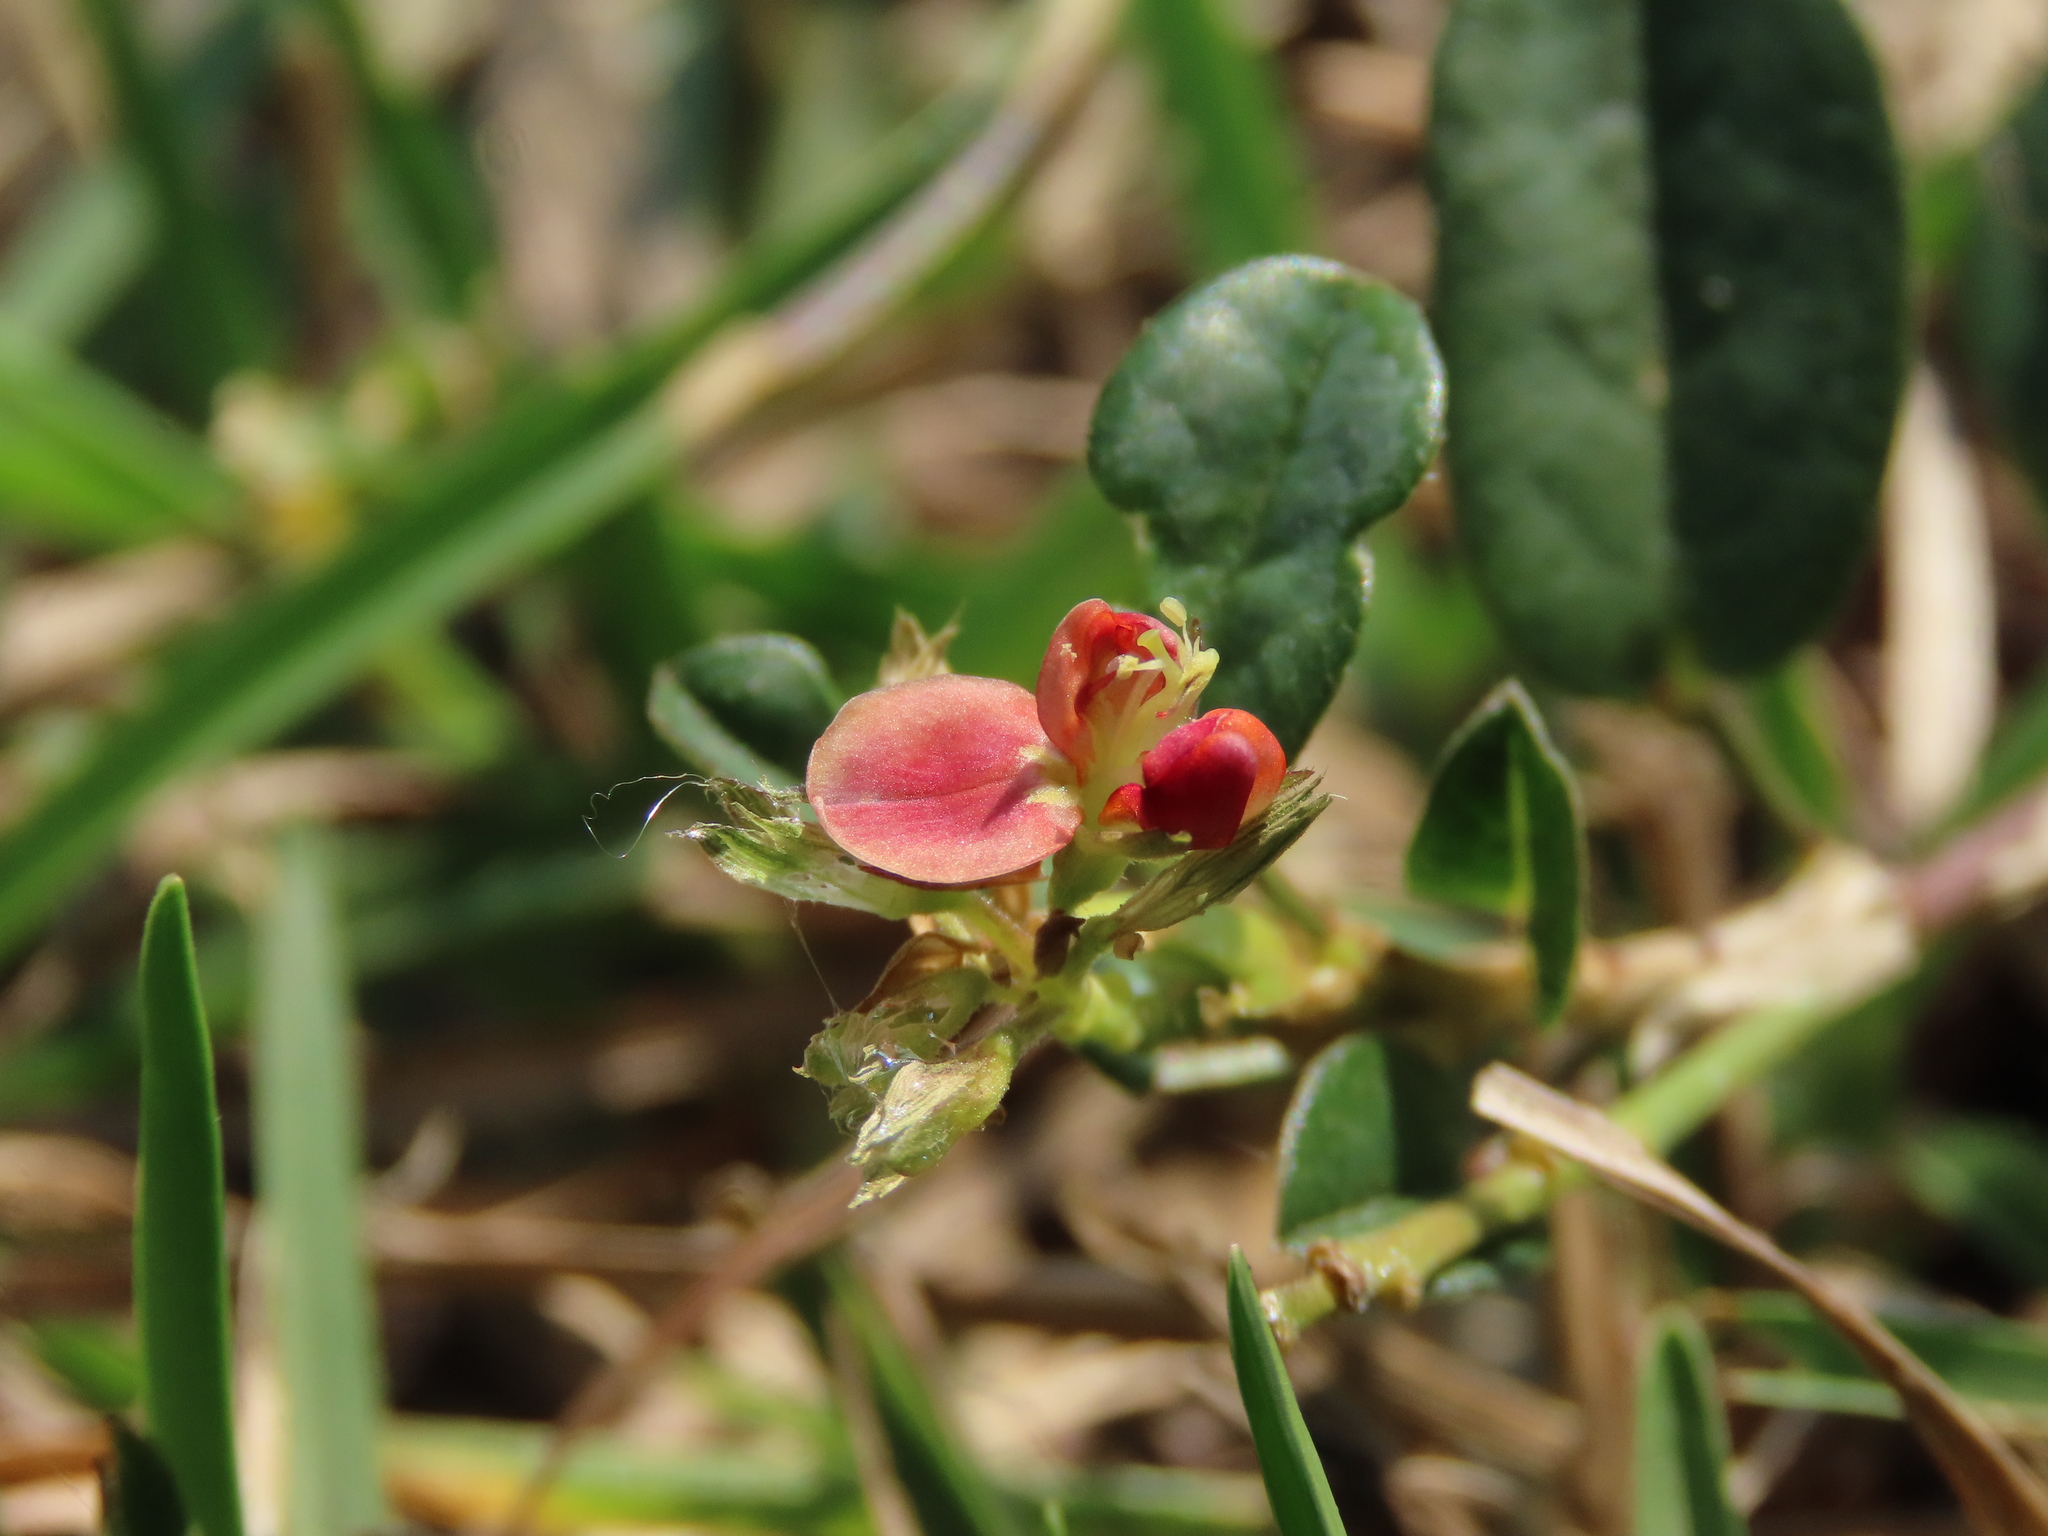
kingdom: Plantae
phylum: Tracheophyta
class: Magnoliopsida
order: Fabales
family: Fabaceae
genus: Alysicarpus
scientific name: Alysicarpus vaginalis
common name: White moneywort
